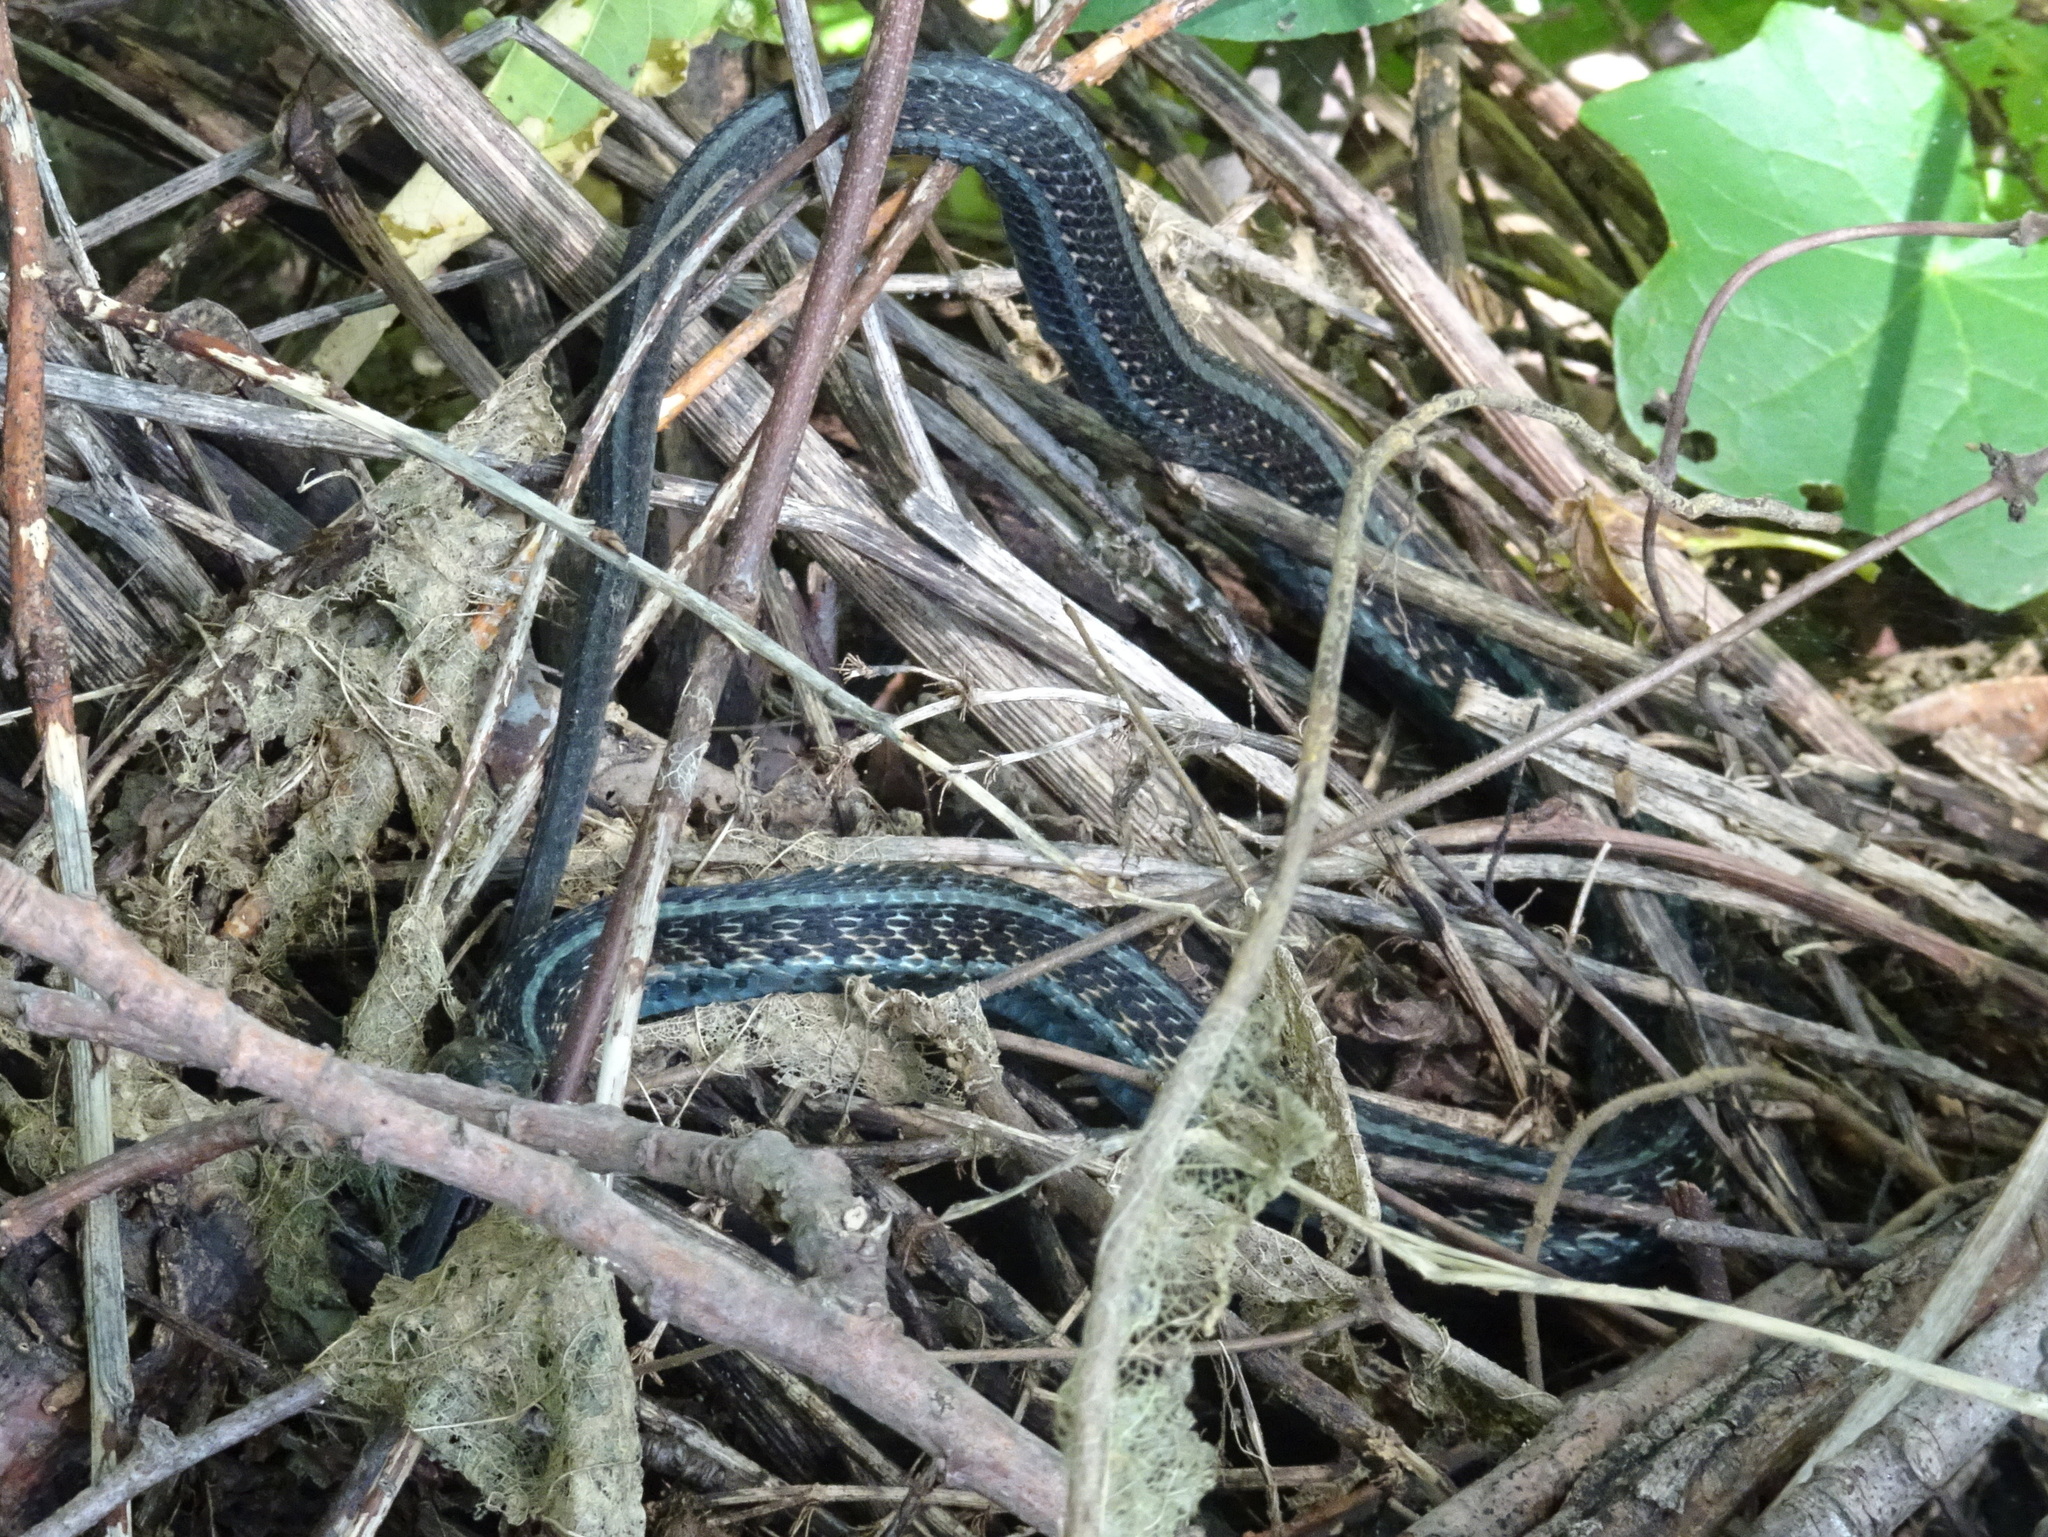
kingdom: Animalia
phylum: Chordata
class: Squamata
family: Colubridae
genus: Thamnophis
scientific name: Thamnophis sirtalis
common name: Common garter snake
